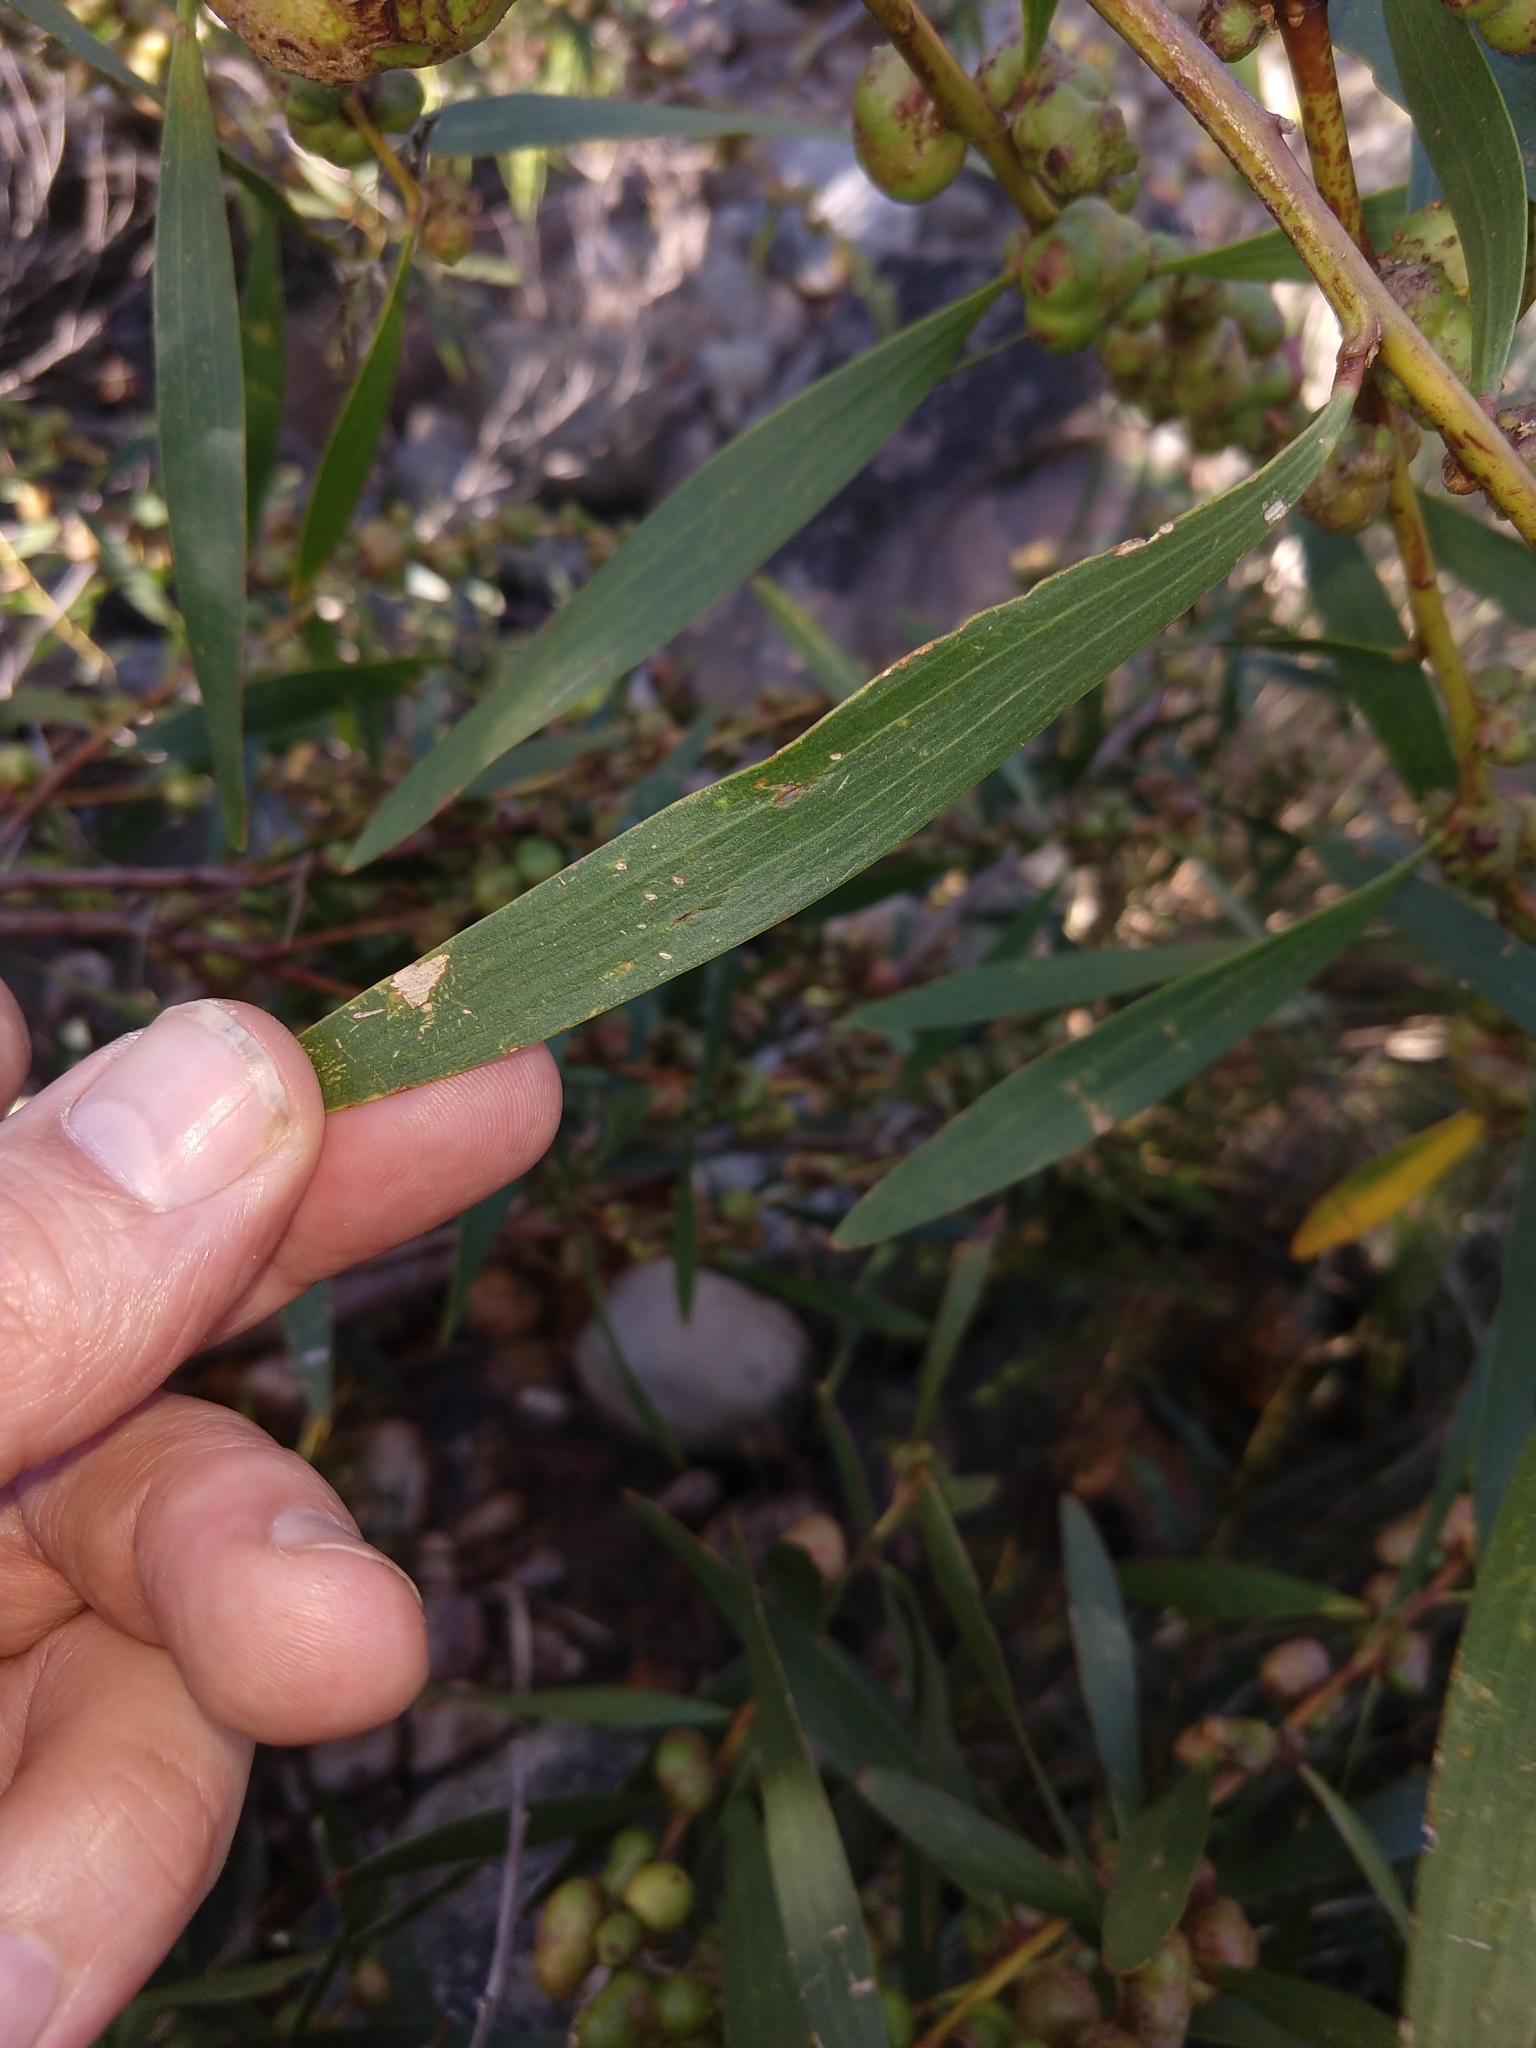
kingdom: Plantae
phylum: Tracheophyta
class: Magnoliopsida
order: Fabales
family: Fabaceae
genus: Acacia
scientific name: Acacia longifolia
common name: Sydney golden wattle
